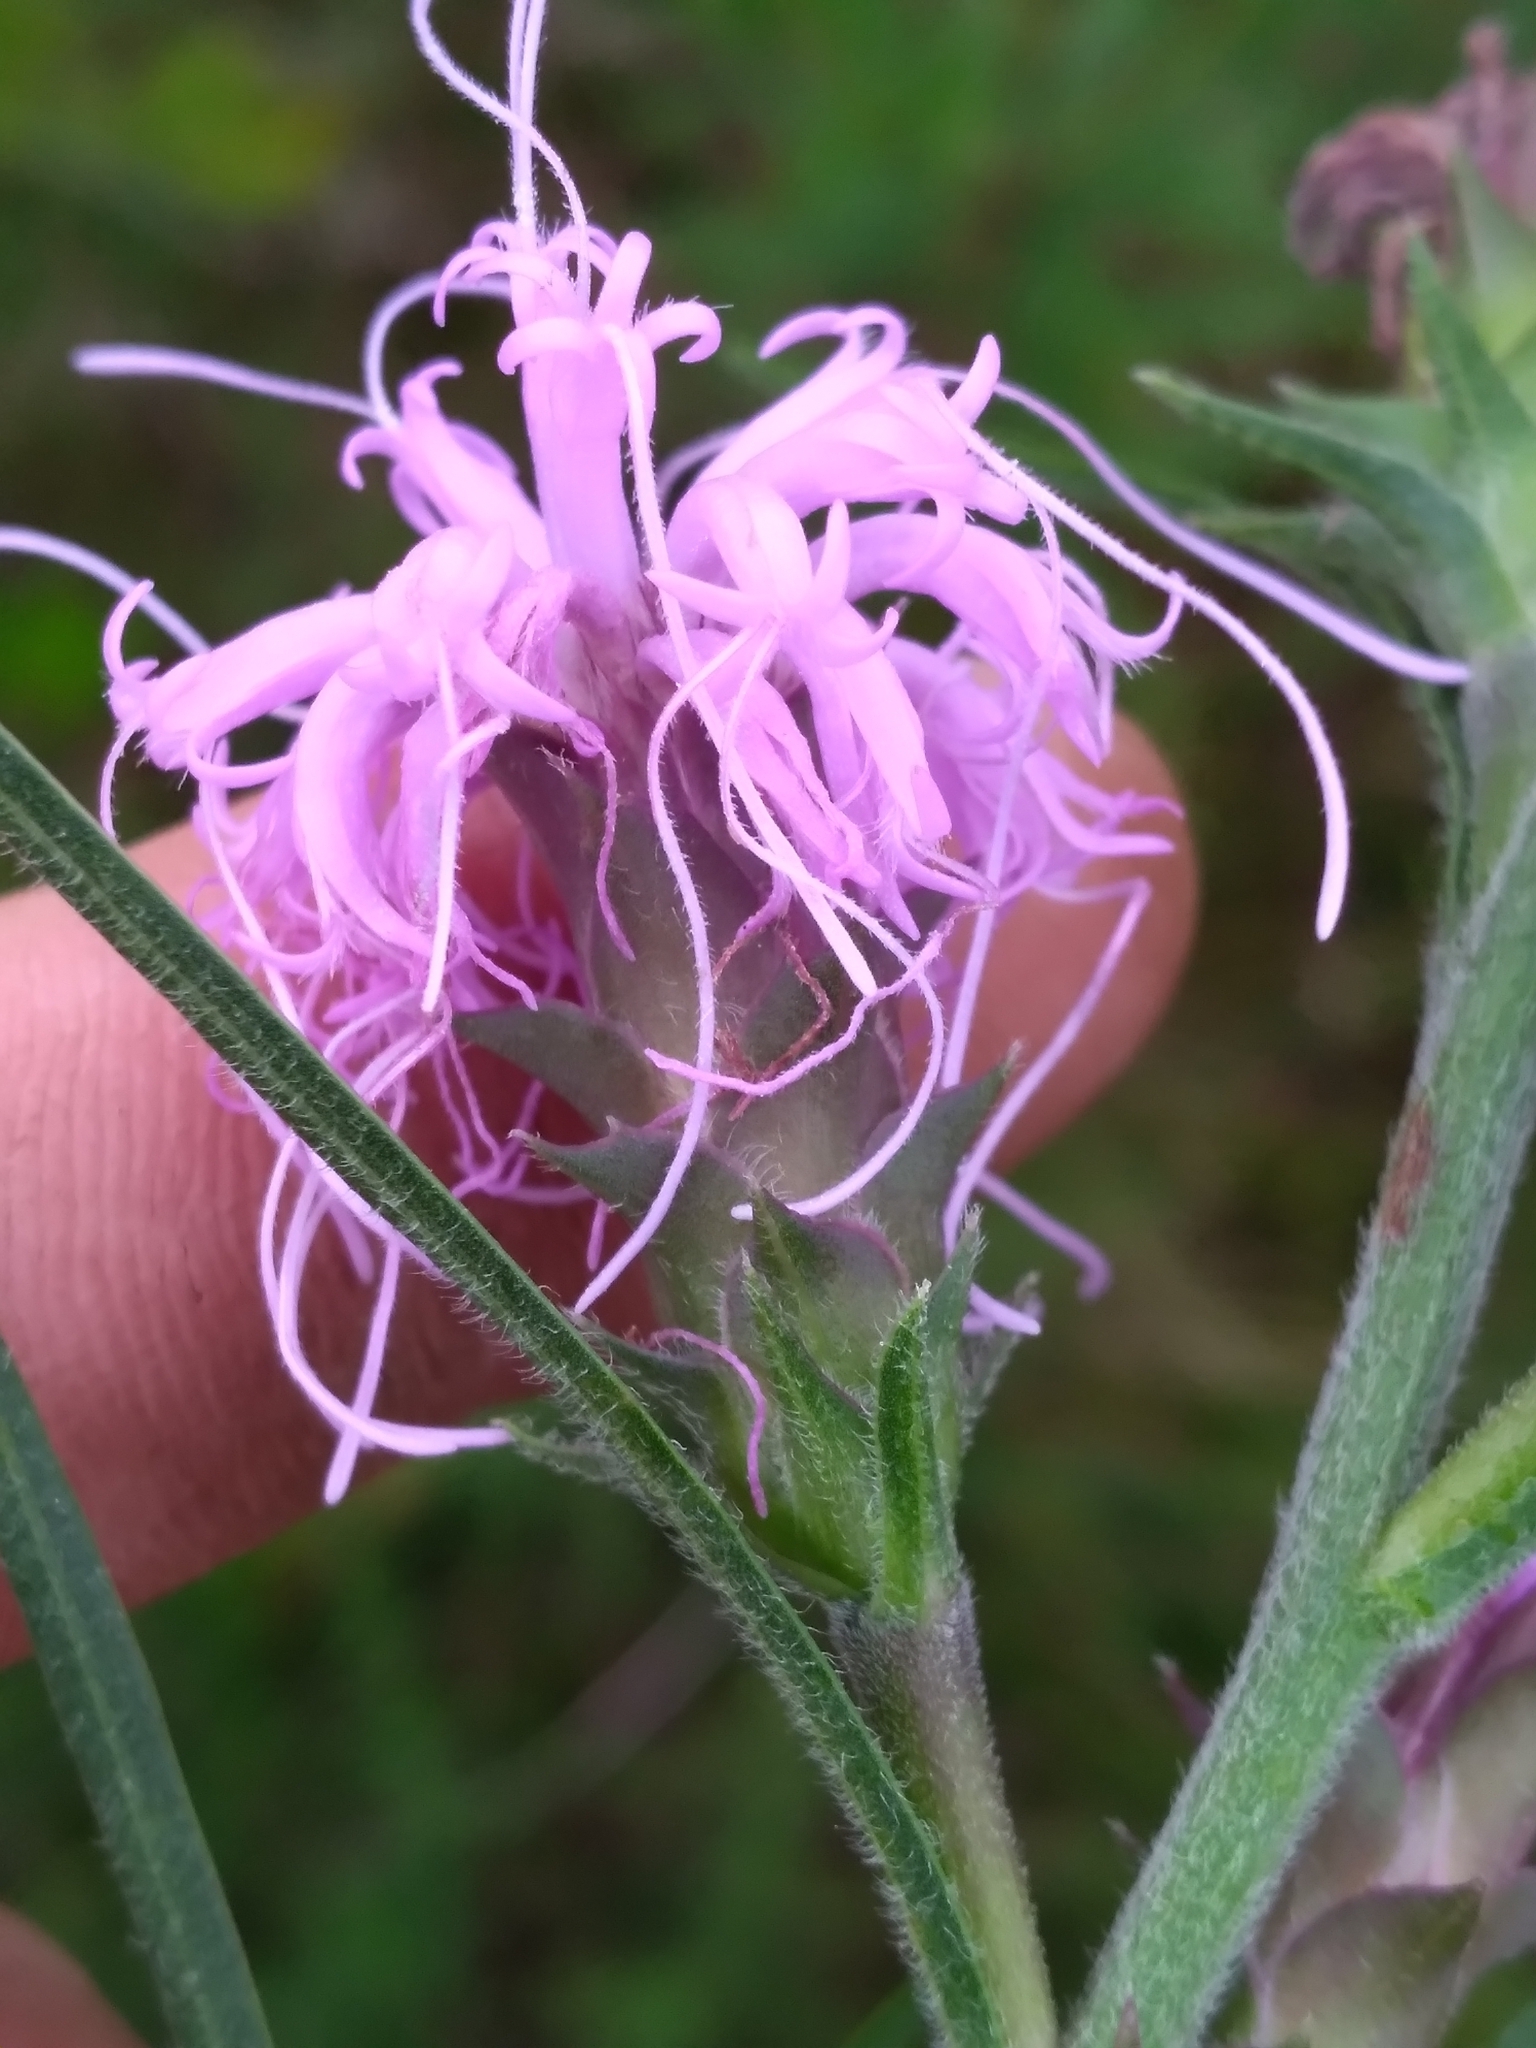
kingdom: Plantae
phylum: Tracheophyta
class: Magnoliopsida
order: Asterales
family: Asteraceae
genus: Liatris
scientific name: Liatris squarrosa
